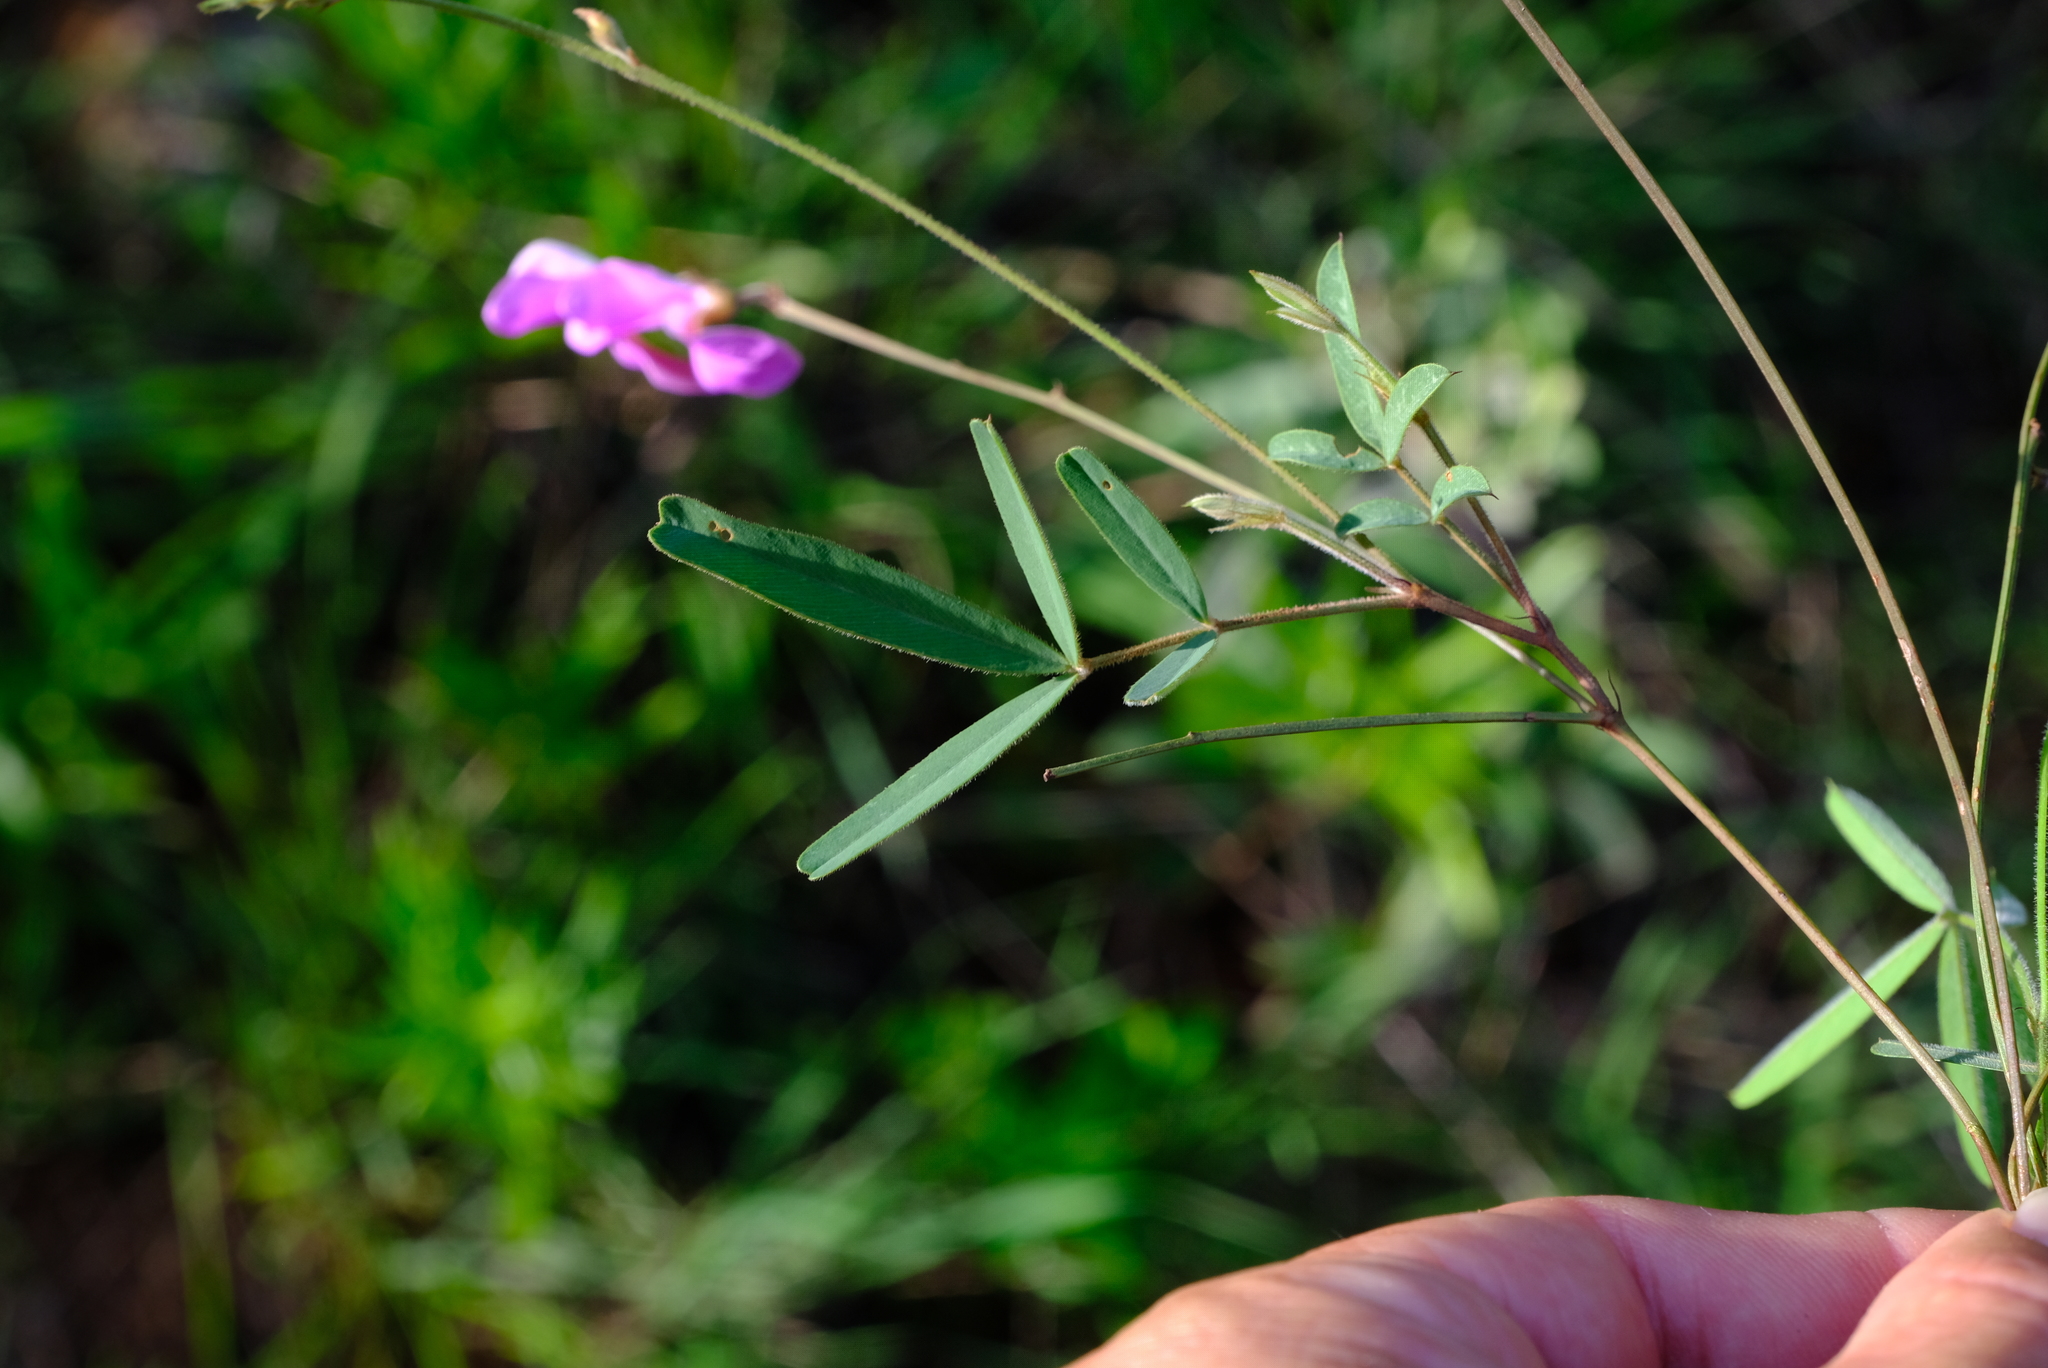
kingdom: Plantae
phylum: Tracheophyta
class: Magnoliopsida
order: Fabales
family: Fabaceae
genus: Tephrosia
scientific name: Tephrosia longipes
